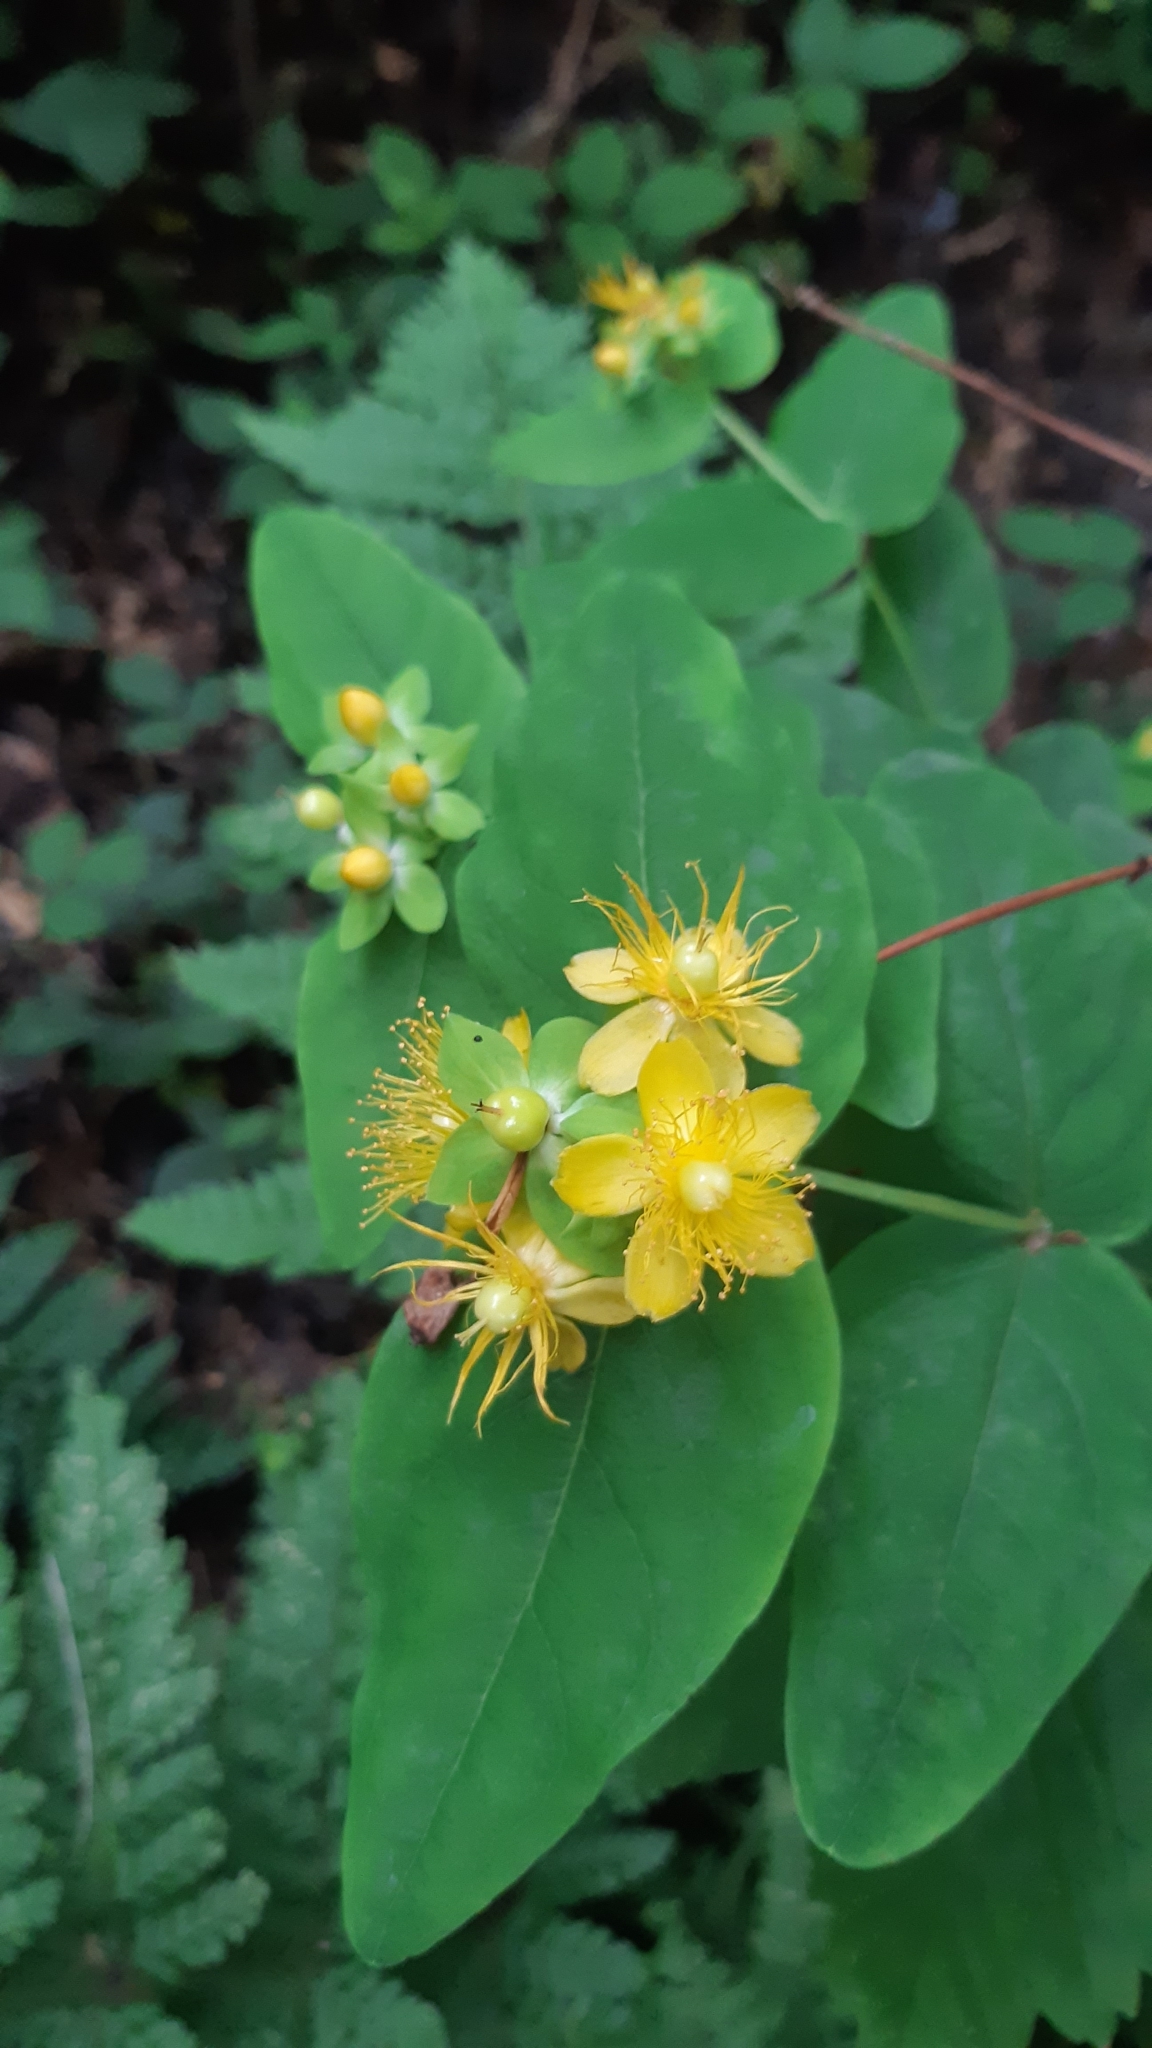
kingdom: Plantae
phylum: Tracheophyta
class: Magnoliopsida
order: Malpighiales
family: Hypericaceae
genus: Hypericum
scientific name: Hypericum androsaemum
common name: Sweet-amber
